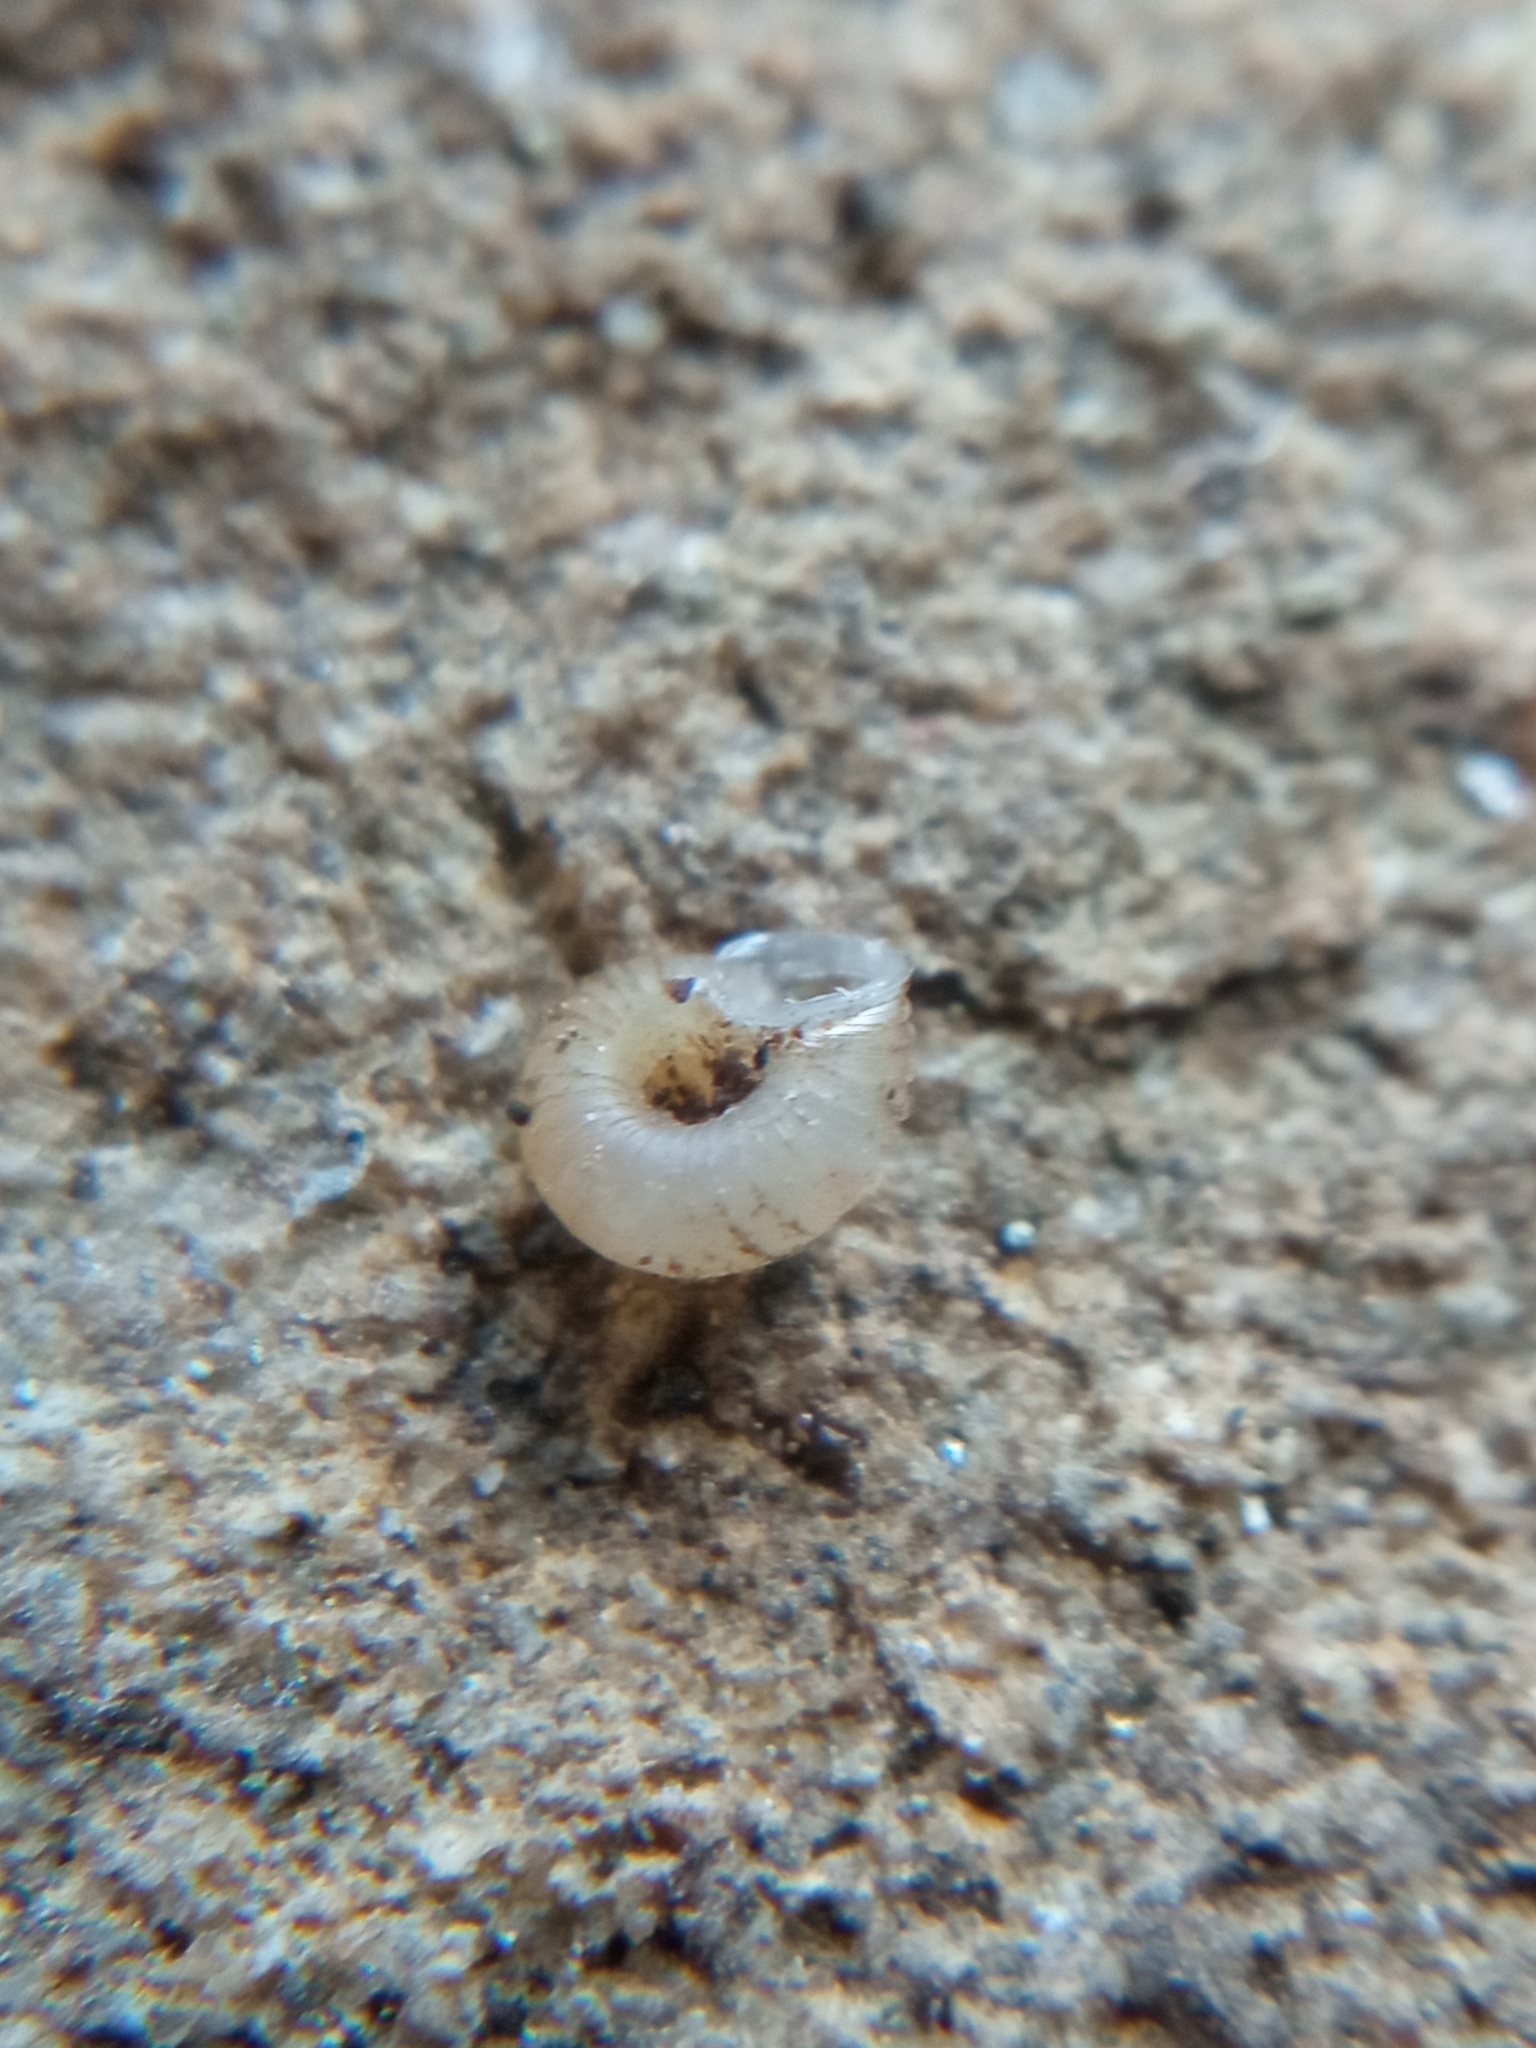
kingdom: Animalia
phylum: Mollusca
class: Gastropoda
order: Stylommatophora
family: Valloniidae
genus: Vallonia
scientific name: Vallonia costata
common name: Ribbed grass snail
